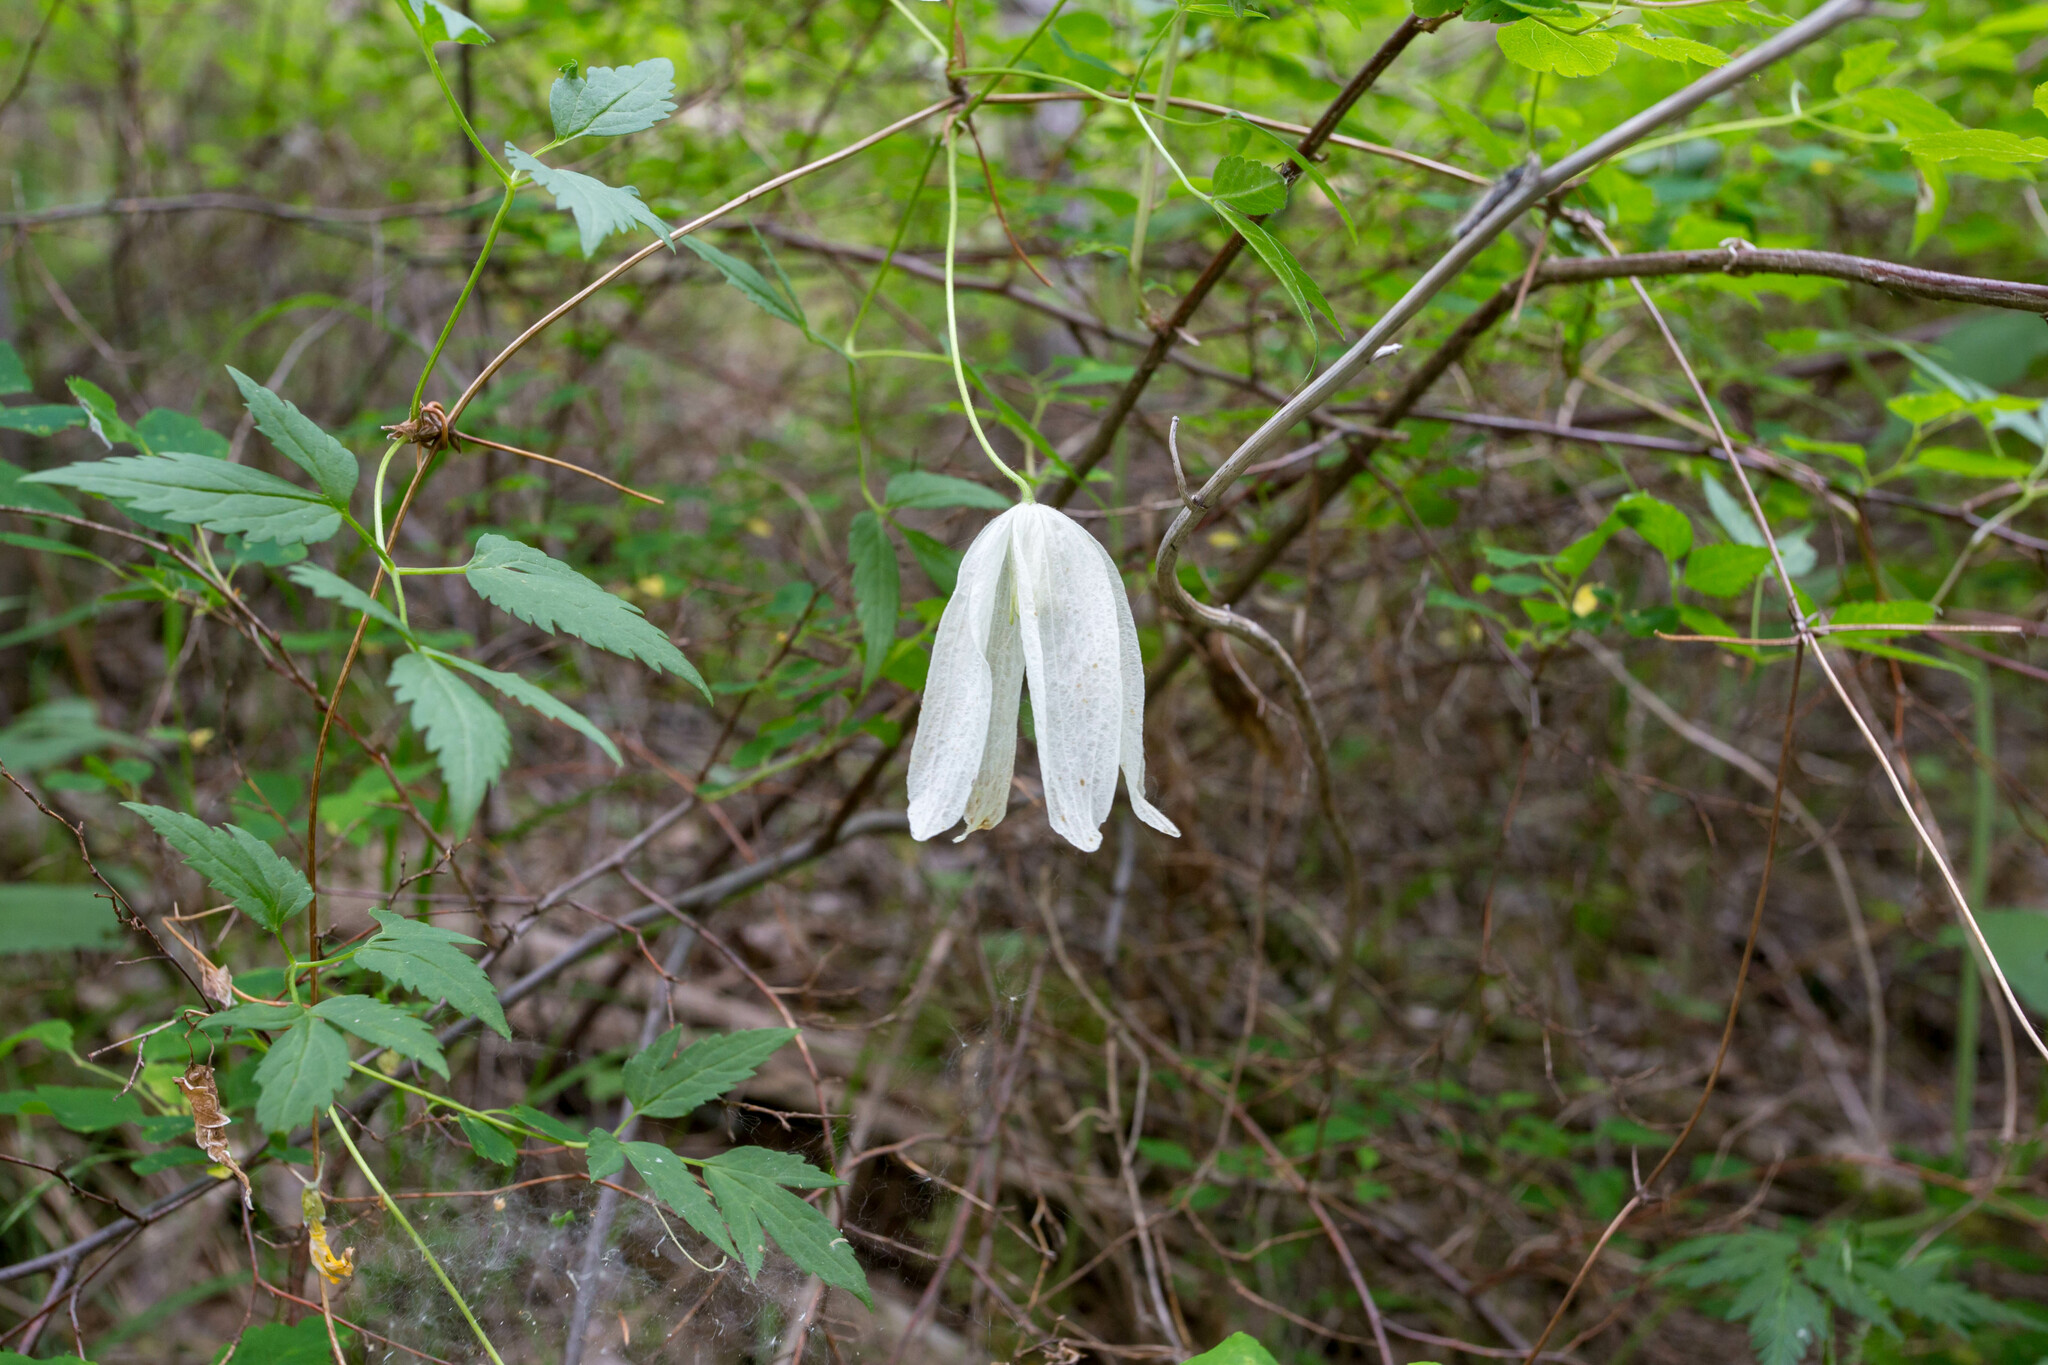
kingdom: Plantae
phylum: Tracheophyta
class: Magnoliopsida
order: Ranunculales
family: Ranunculaceae
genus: Clematis
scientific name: Clematis sibirica
